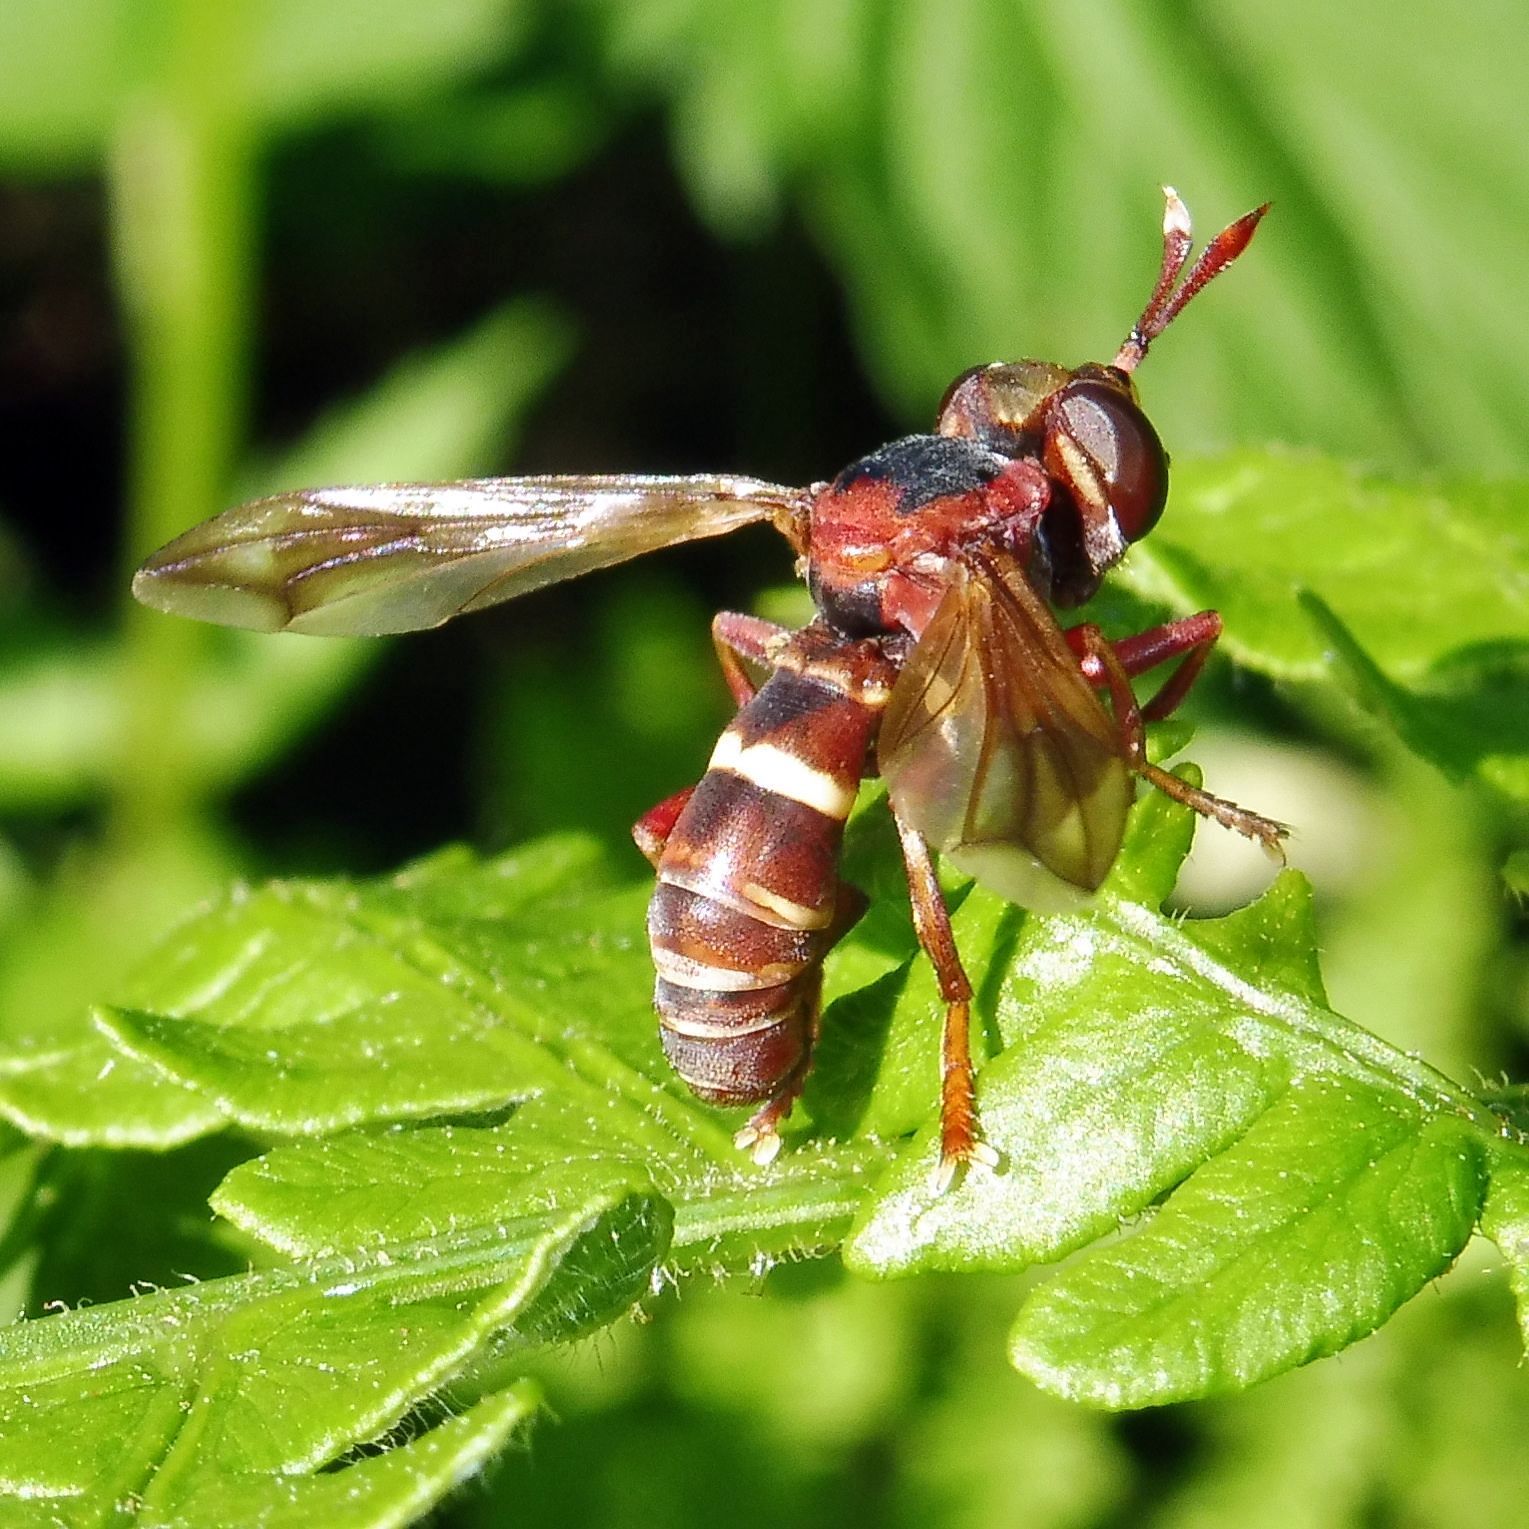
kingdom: Animalia
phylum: Arthropoda
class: Insecta
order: Diptera
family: Conopidae
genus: Conops
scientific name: Conops vesicularis
